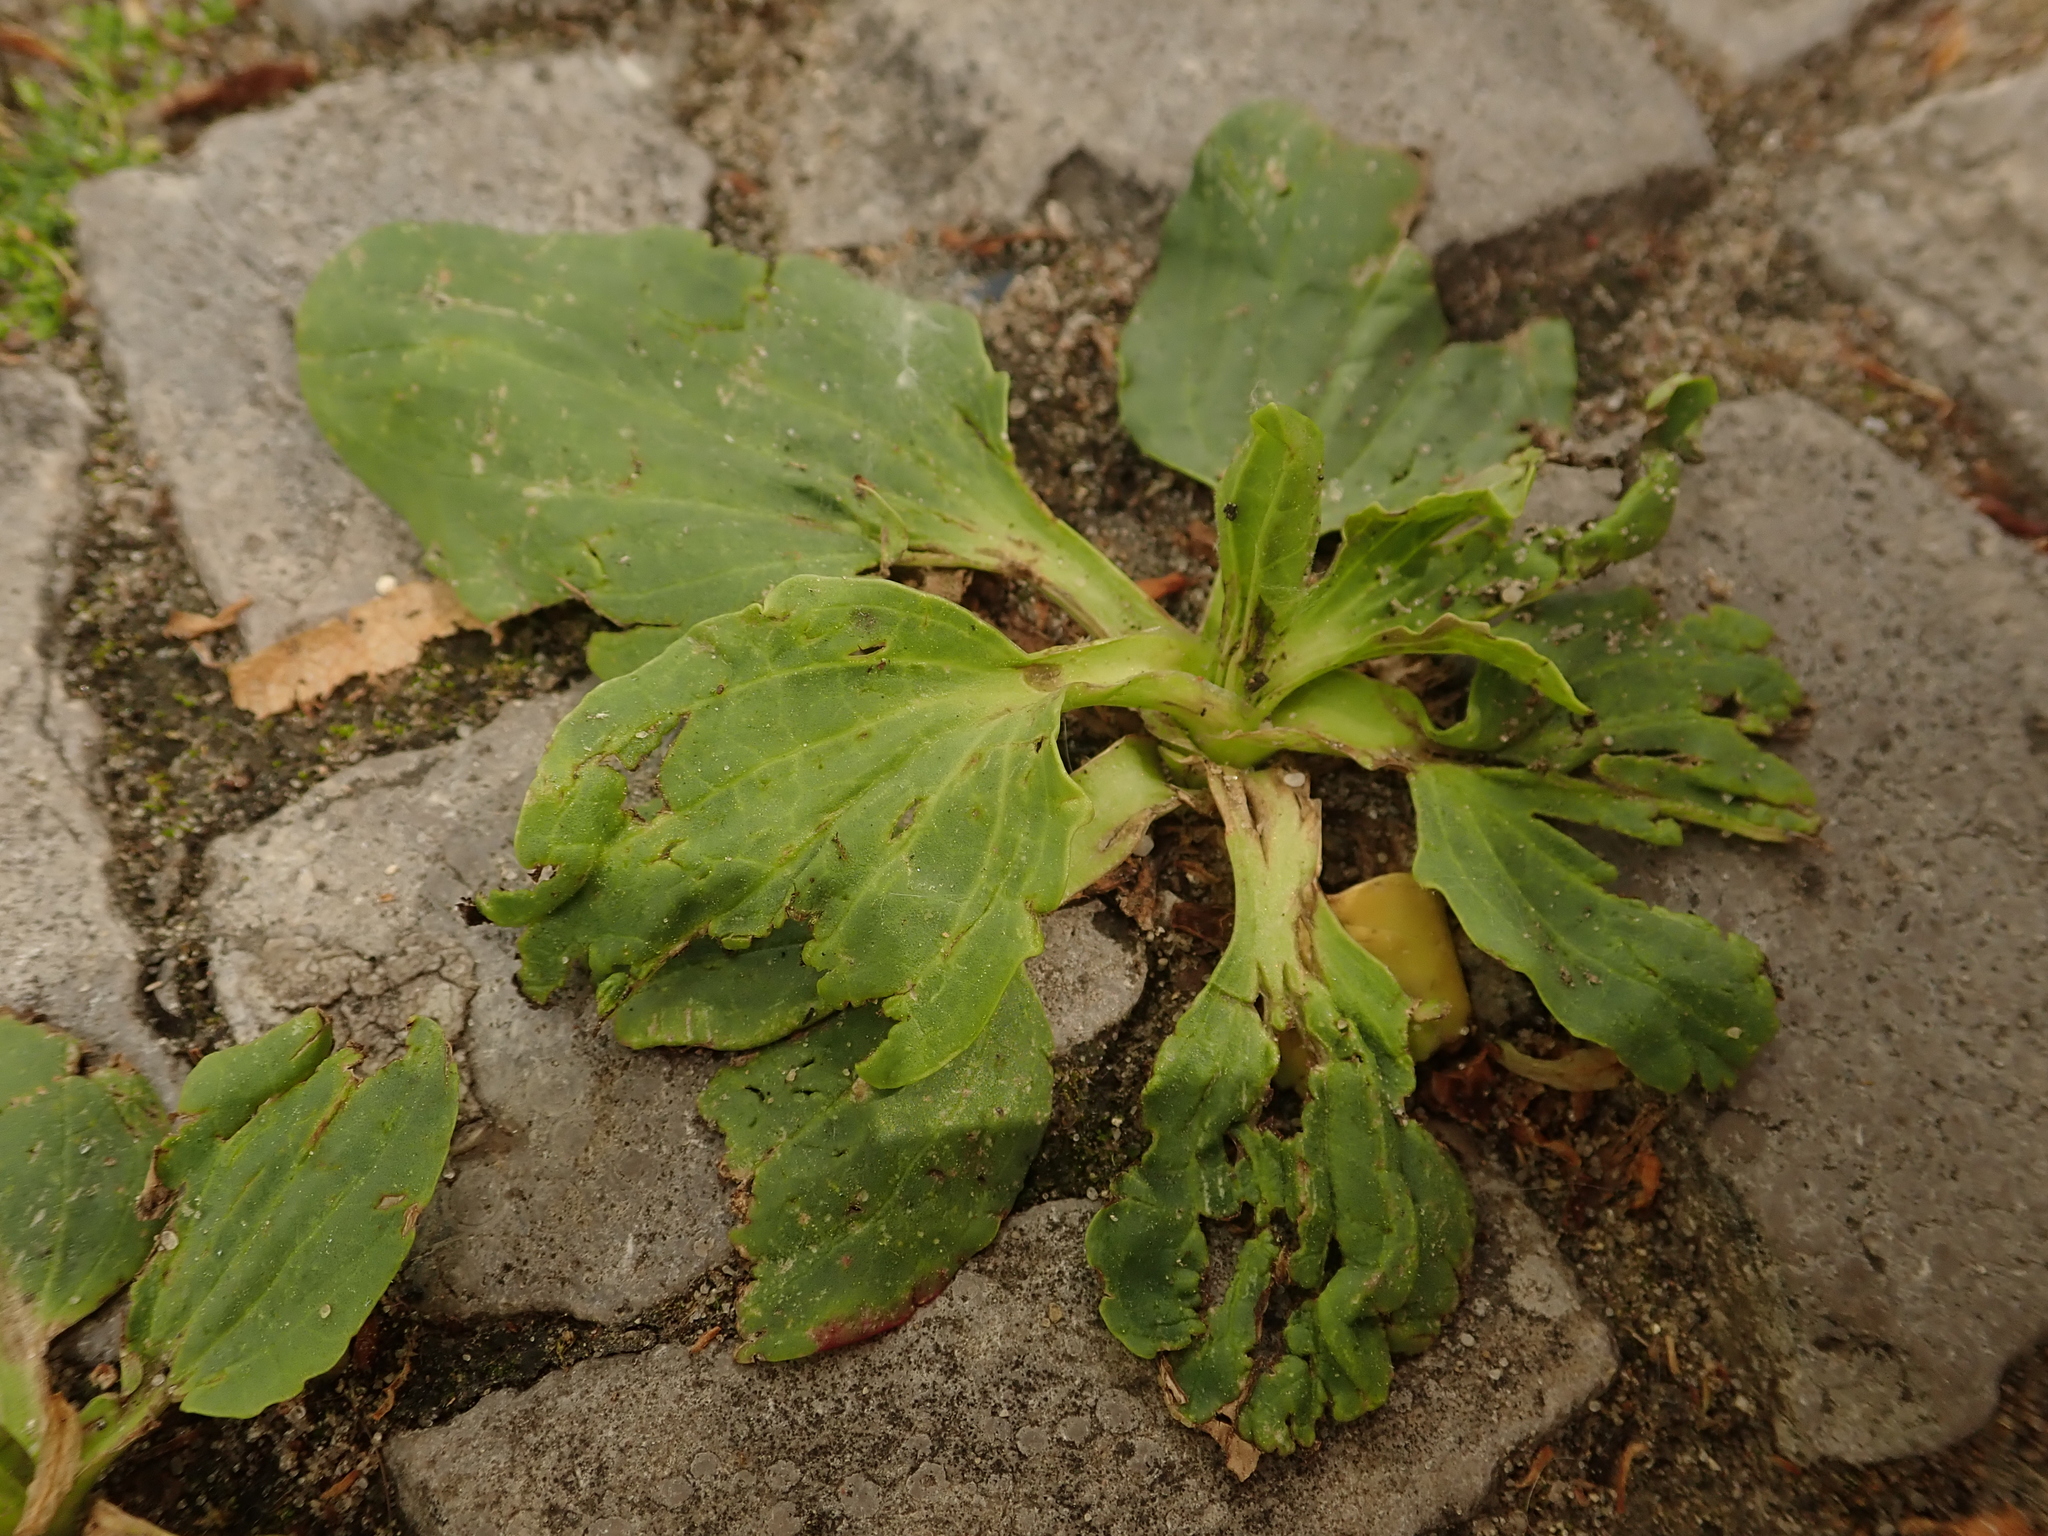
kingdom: Plantae
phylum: Tracheophyta
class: Magnoliopsida
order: Lamiales
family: Plantaginaceae
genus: Plantago
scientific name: Plantago major
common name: Common plantain
